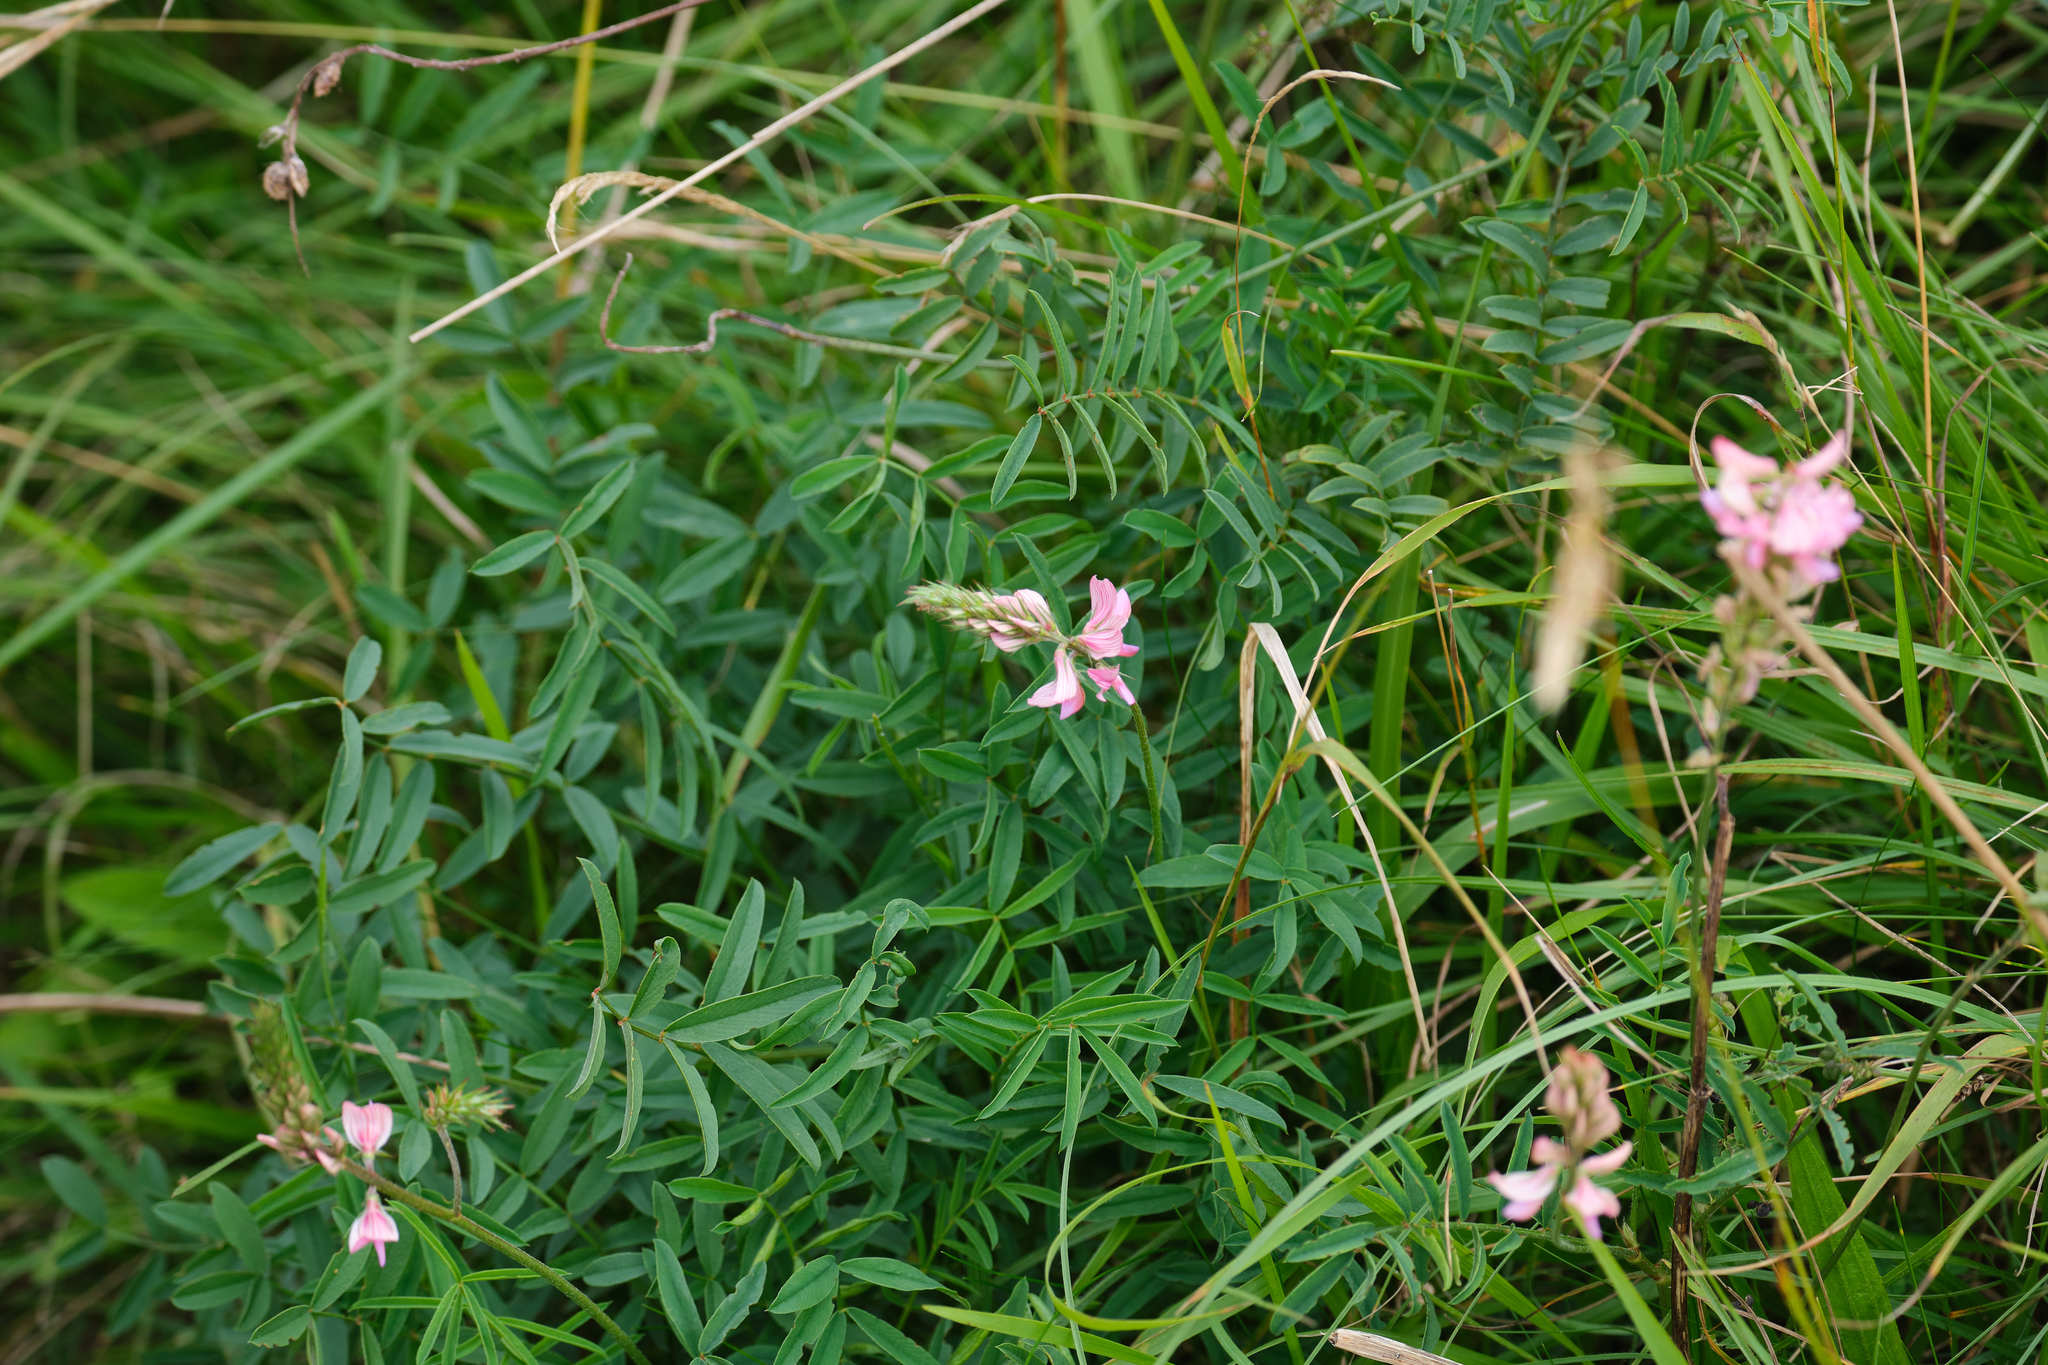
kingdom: Plantae
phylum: Tracheophyta
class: Magnoliopsida
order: Fabales
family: Fabaceae
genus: Onobrychis
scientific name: Onobrychis viciifolia
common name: Sainfoin
